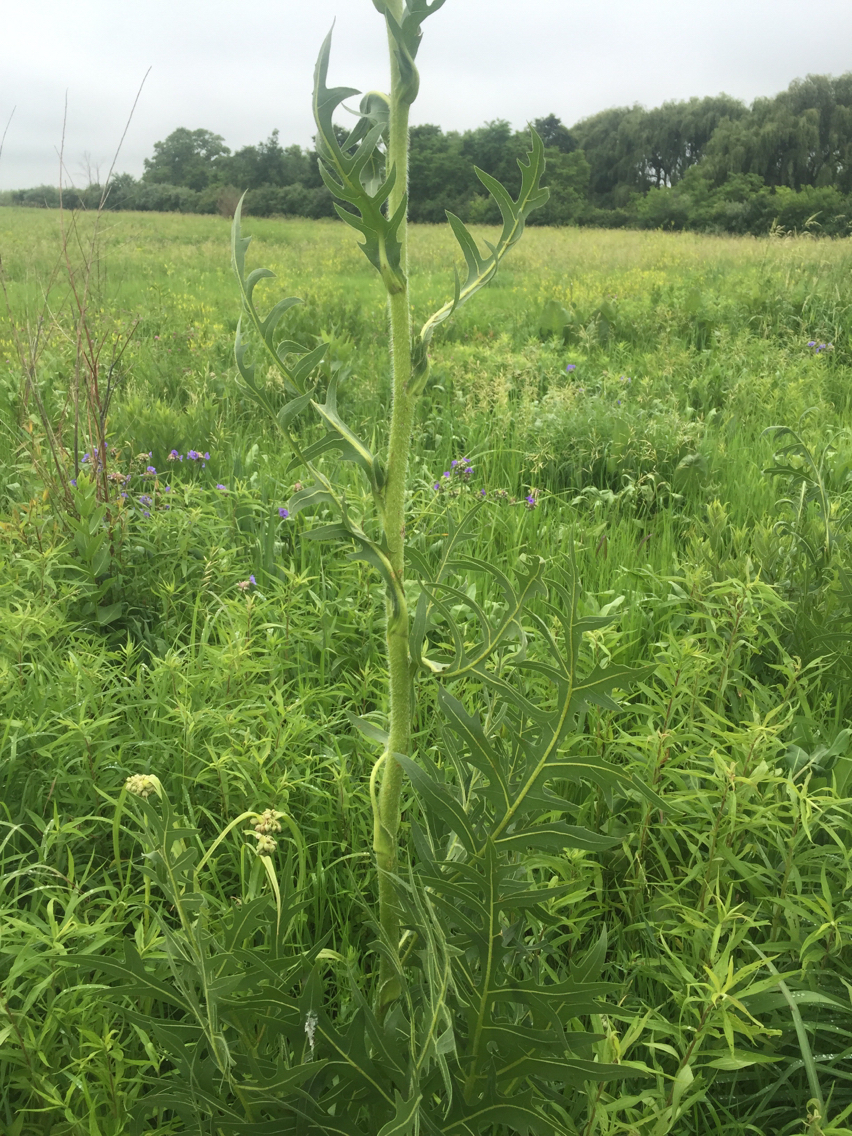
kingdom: Plantae
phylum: Tracheophyta
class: Magnoliopsida
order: Asterales
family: Asteraceae
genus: Silphium
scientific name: Silphium laciniatum
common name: Polarplant
